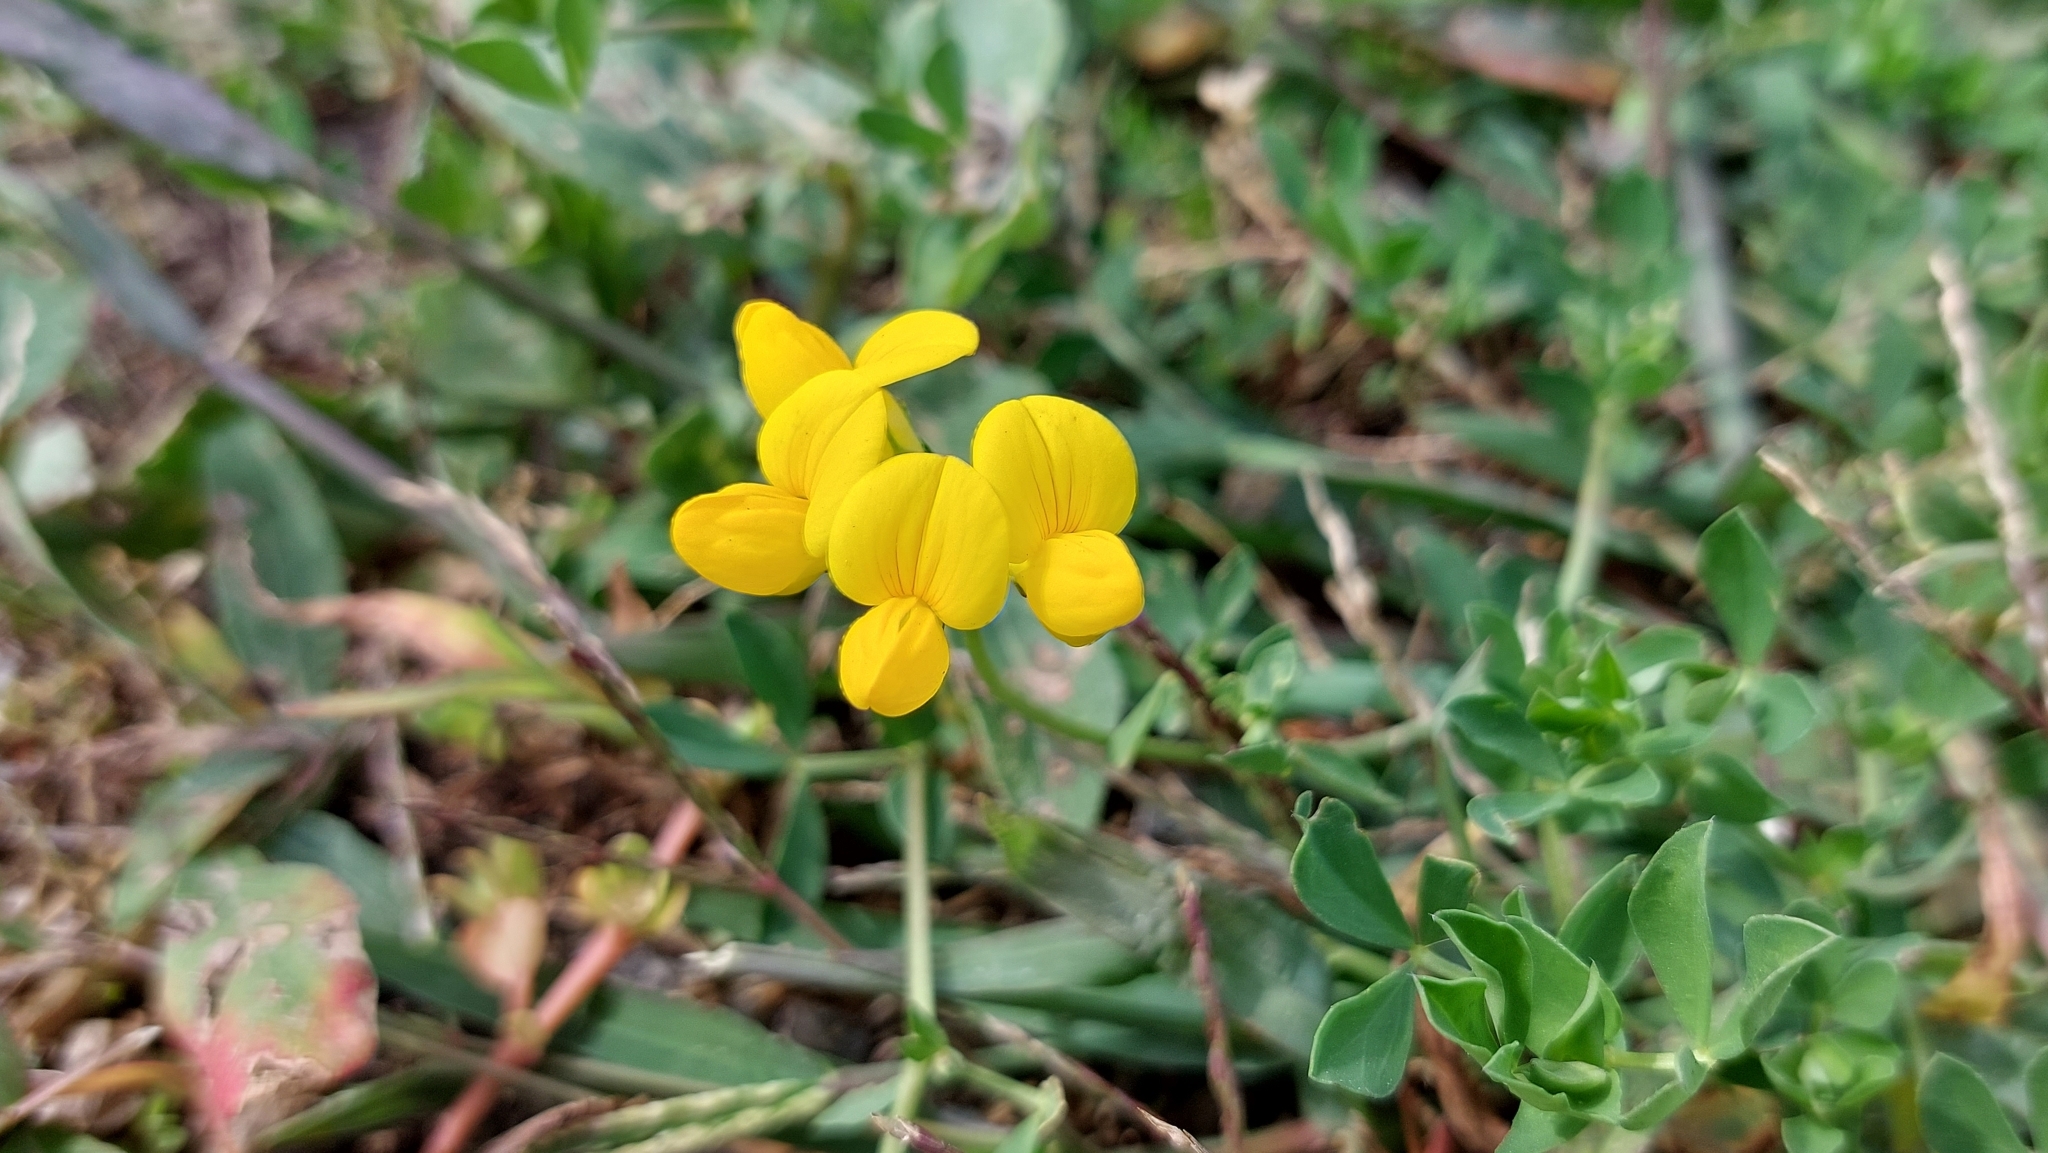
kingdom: Plantae
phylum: Tracheophyta
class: Magnoliopsida
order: Fabales
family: Fabaceae
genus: Lotus
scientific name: Lotus corniculatus
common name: Common bird's-foot-trefoil
